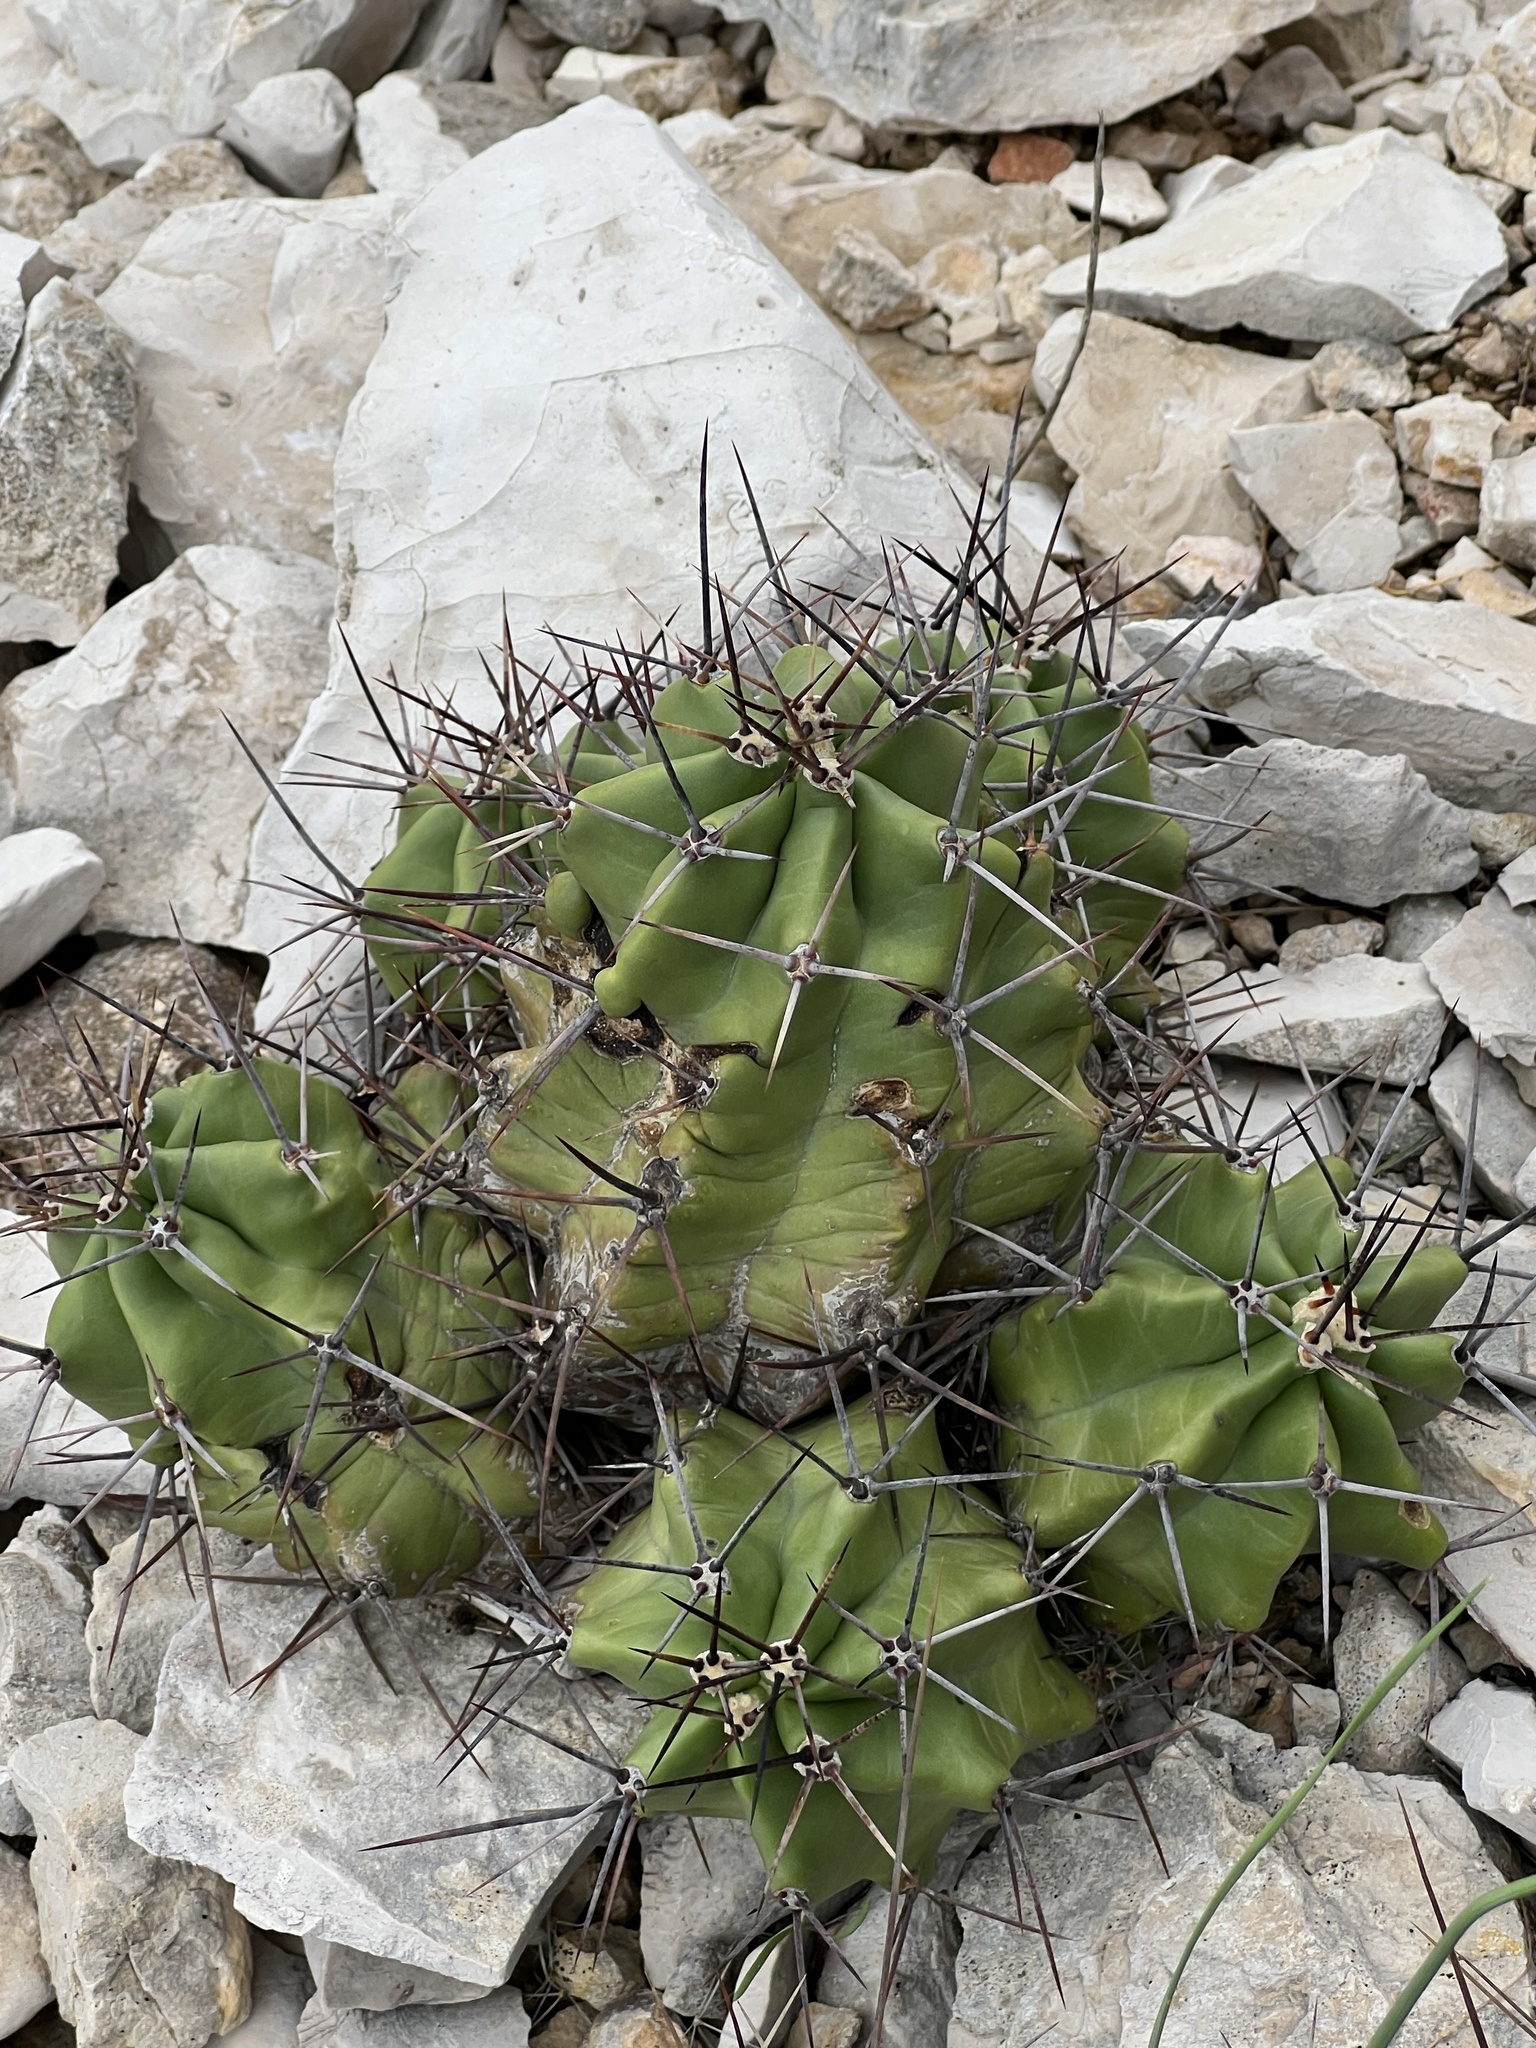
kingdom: Plantae
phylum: Tracheophyta
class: Magnoliopsida
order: Caryophyllales
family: Cactaceae
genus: Echinocereus
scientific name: Echinocereus coccineus
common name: Scarlet hedgehog cactus
